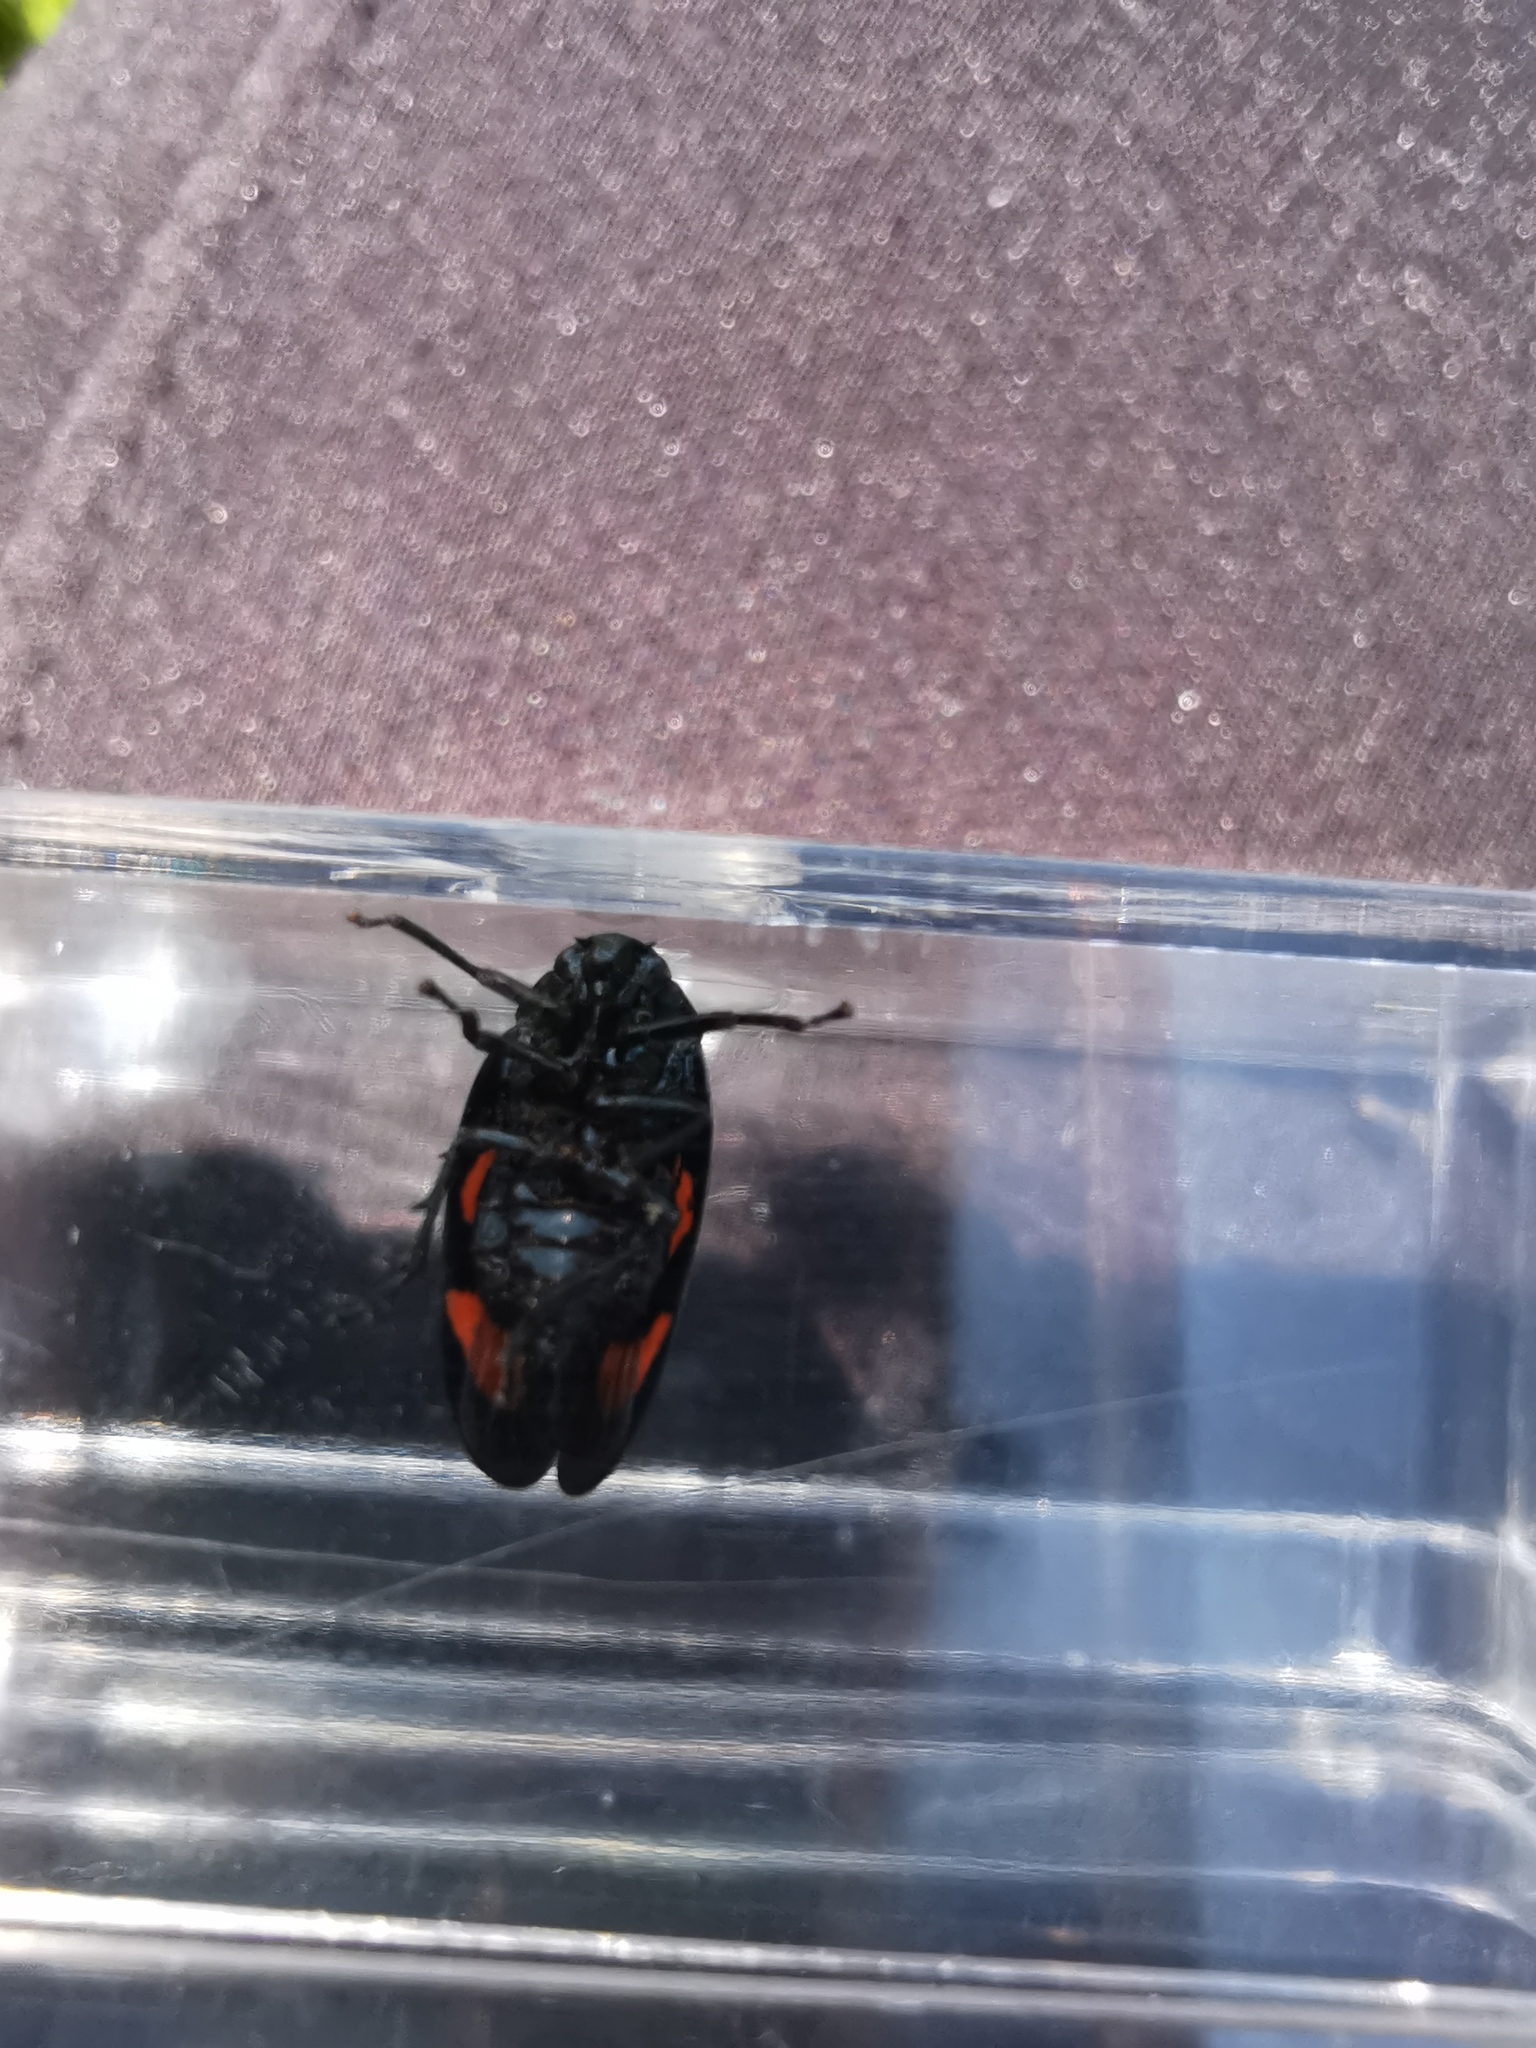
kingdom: Animalia
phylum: Arthropoda
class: Insecta
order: Hemiptera
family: Cercopidae
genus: Cercopis
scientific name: Cercopis vulnerata
